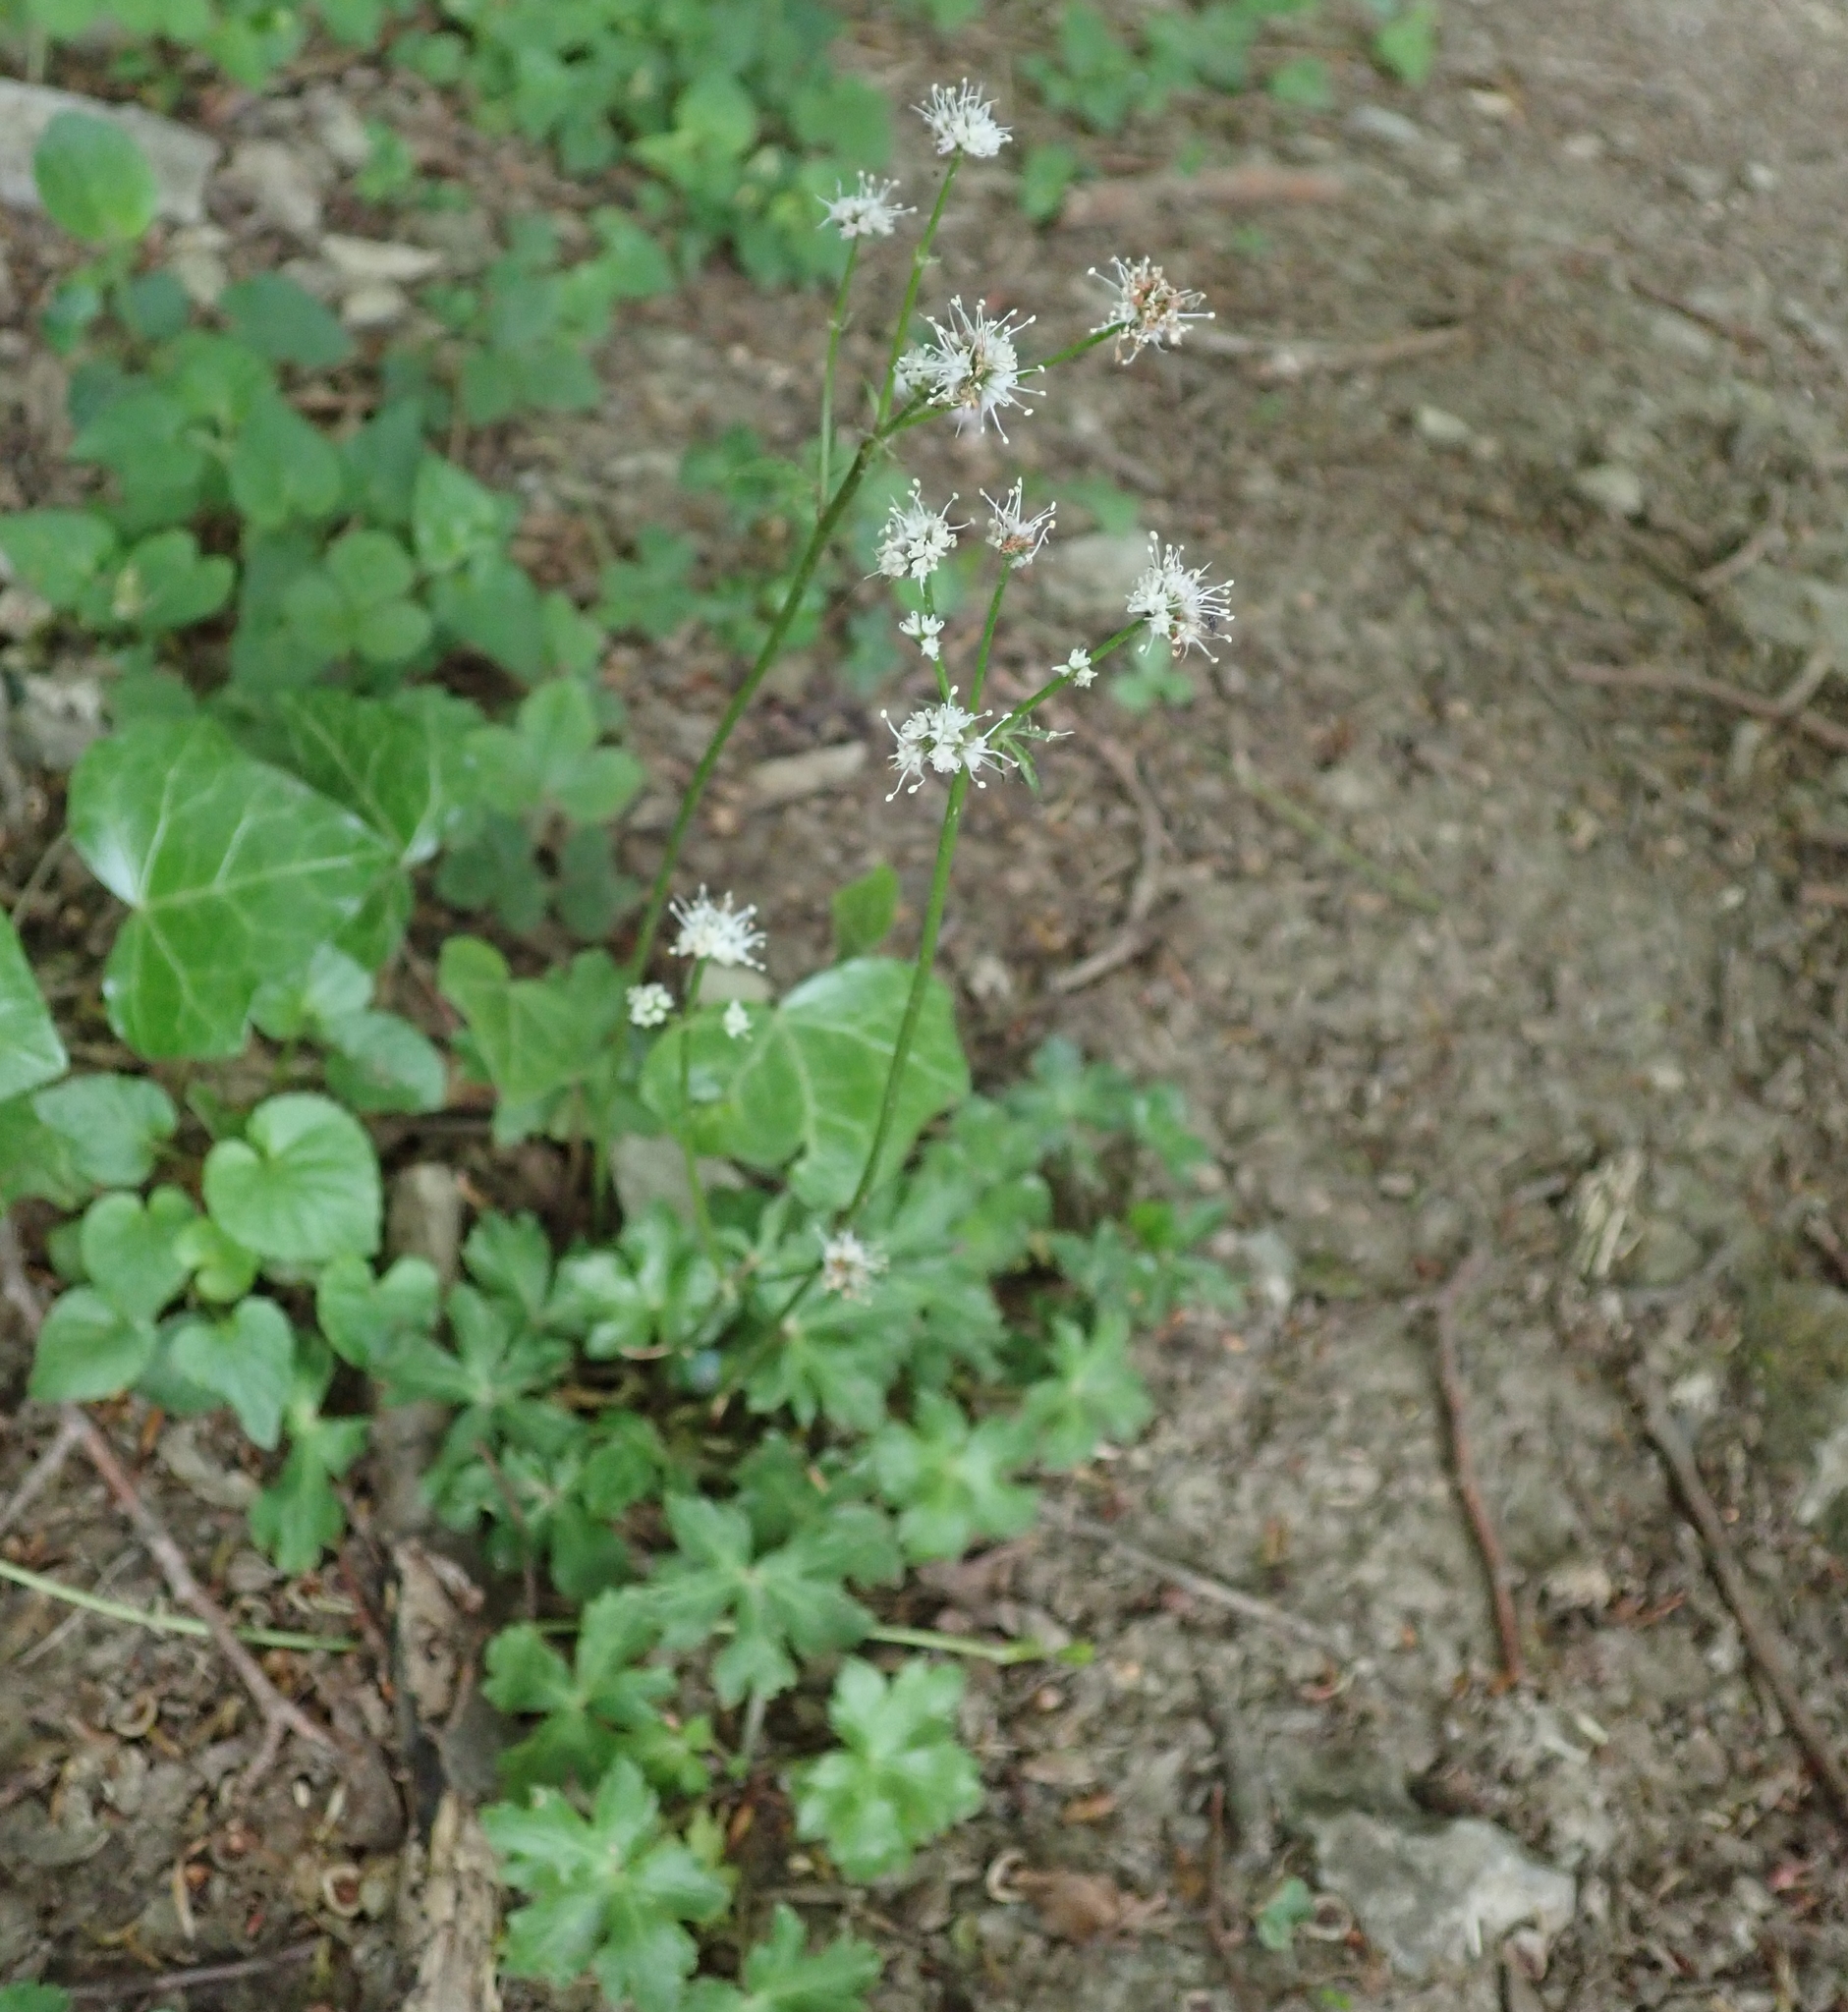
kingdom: Plantae
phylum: Tracheophyta
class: Magnoliopsida
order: Apiales
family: Apiaceae
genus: Sanicula
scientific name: Sanicula europaea
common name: Sanicle
